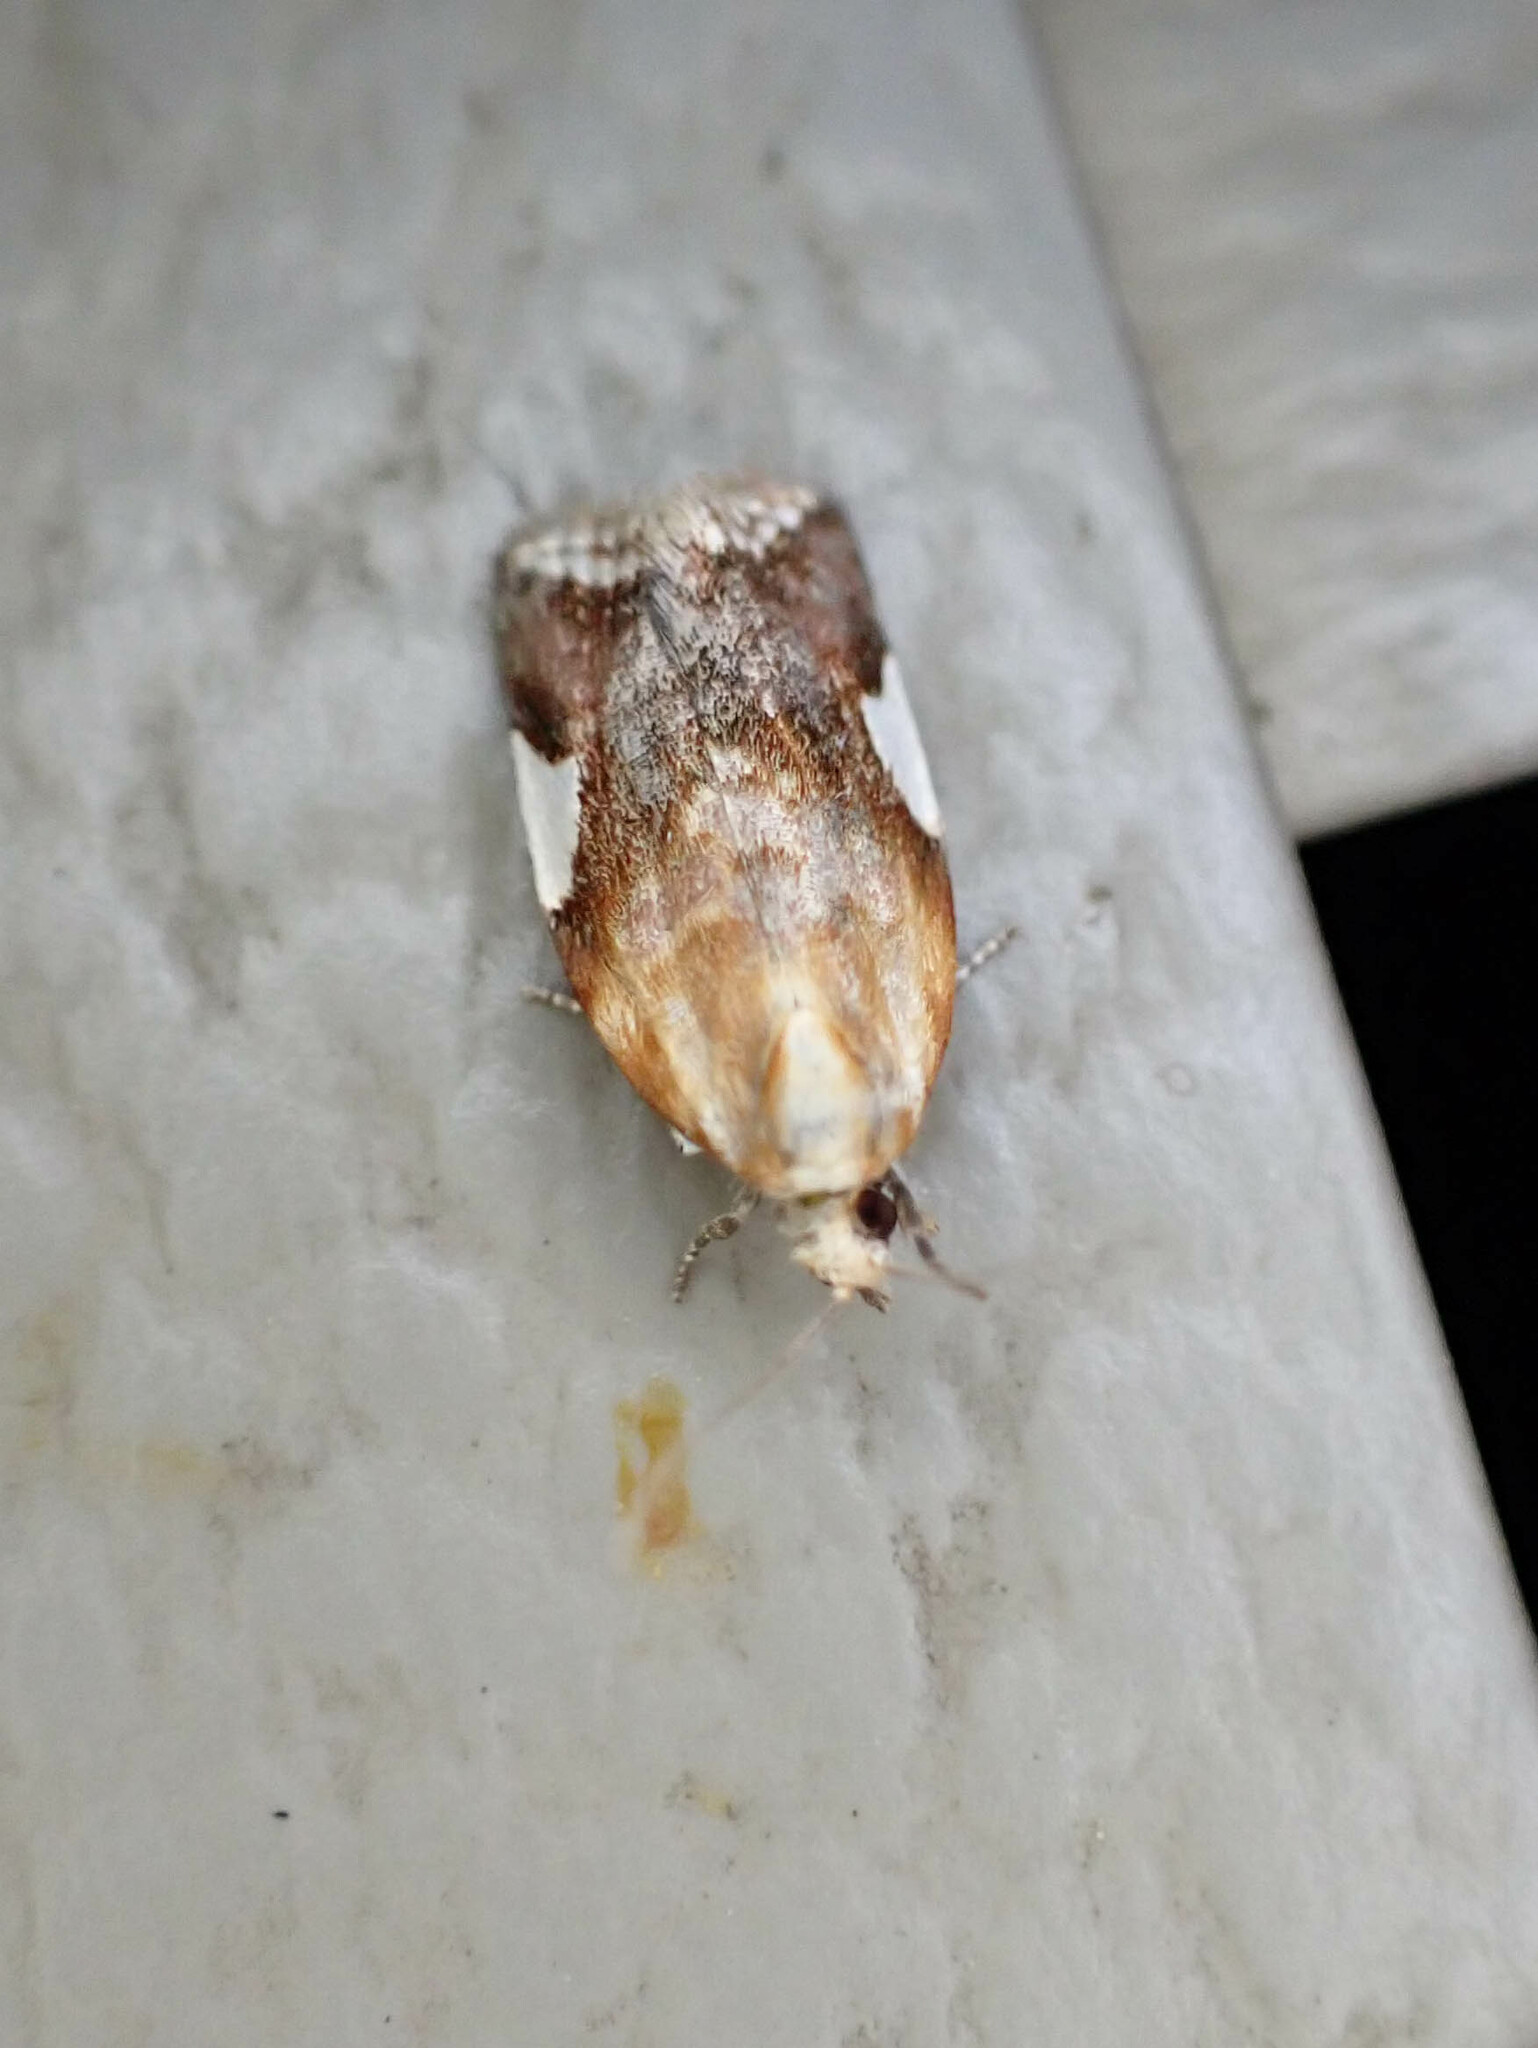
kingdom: Animalia
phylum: Arthropoda
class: Insecta
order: Lepidoptera
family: Tortricidae
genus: Clepsis
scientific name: Clepsis persicana
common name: White triangle tortrix
